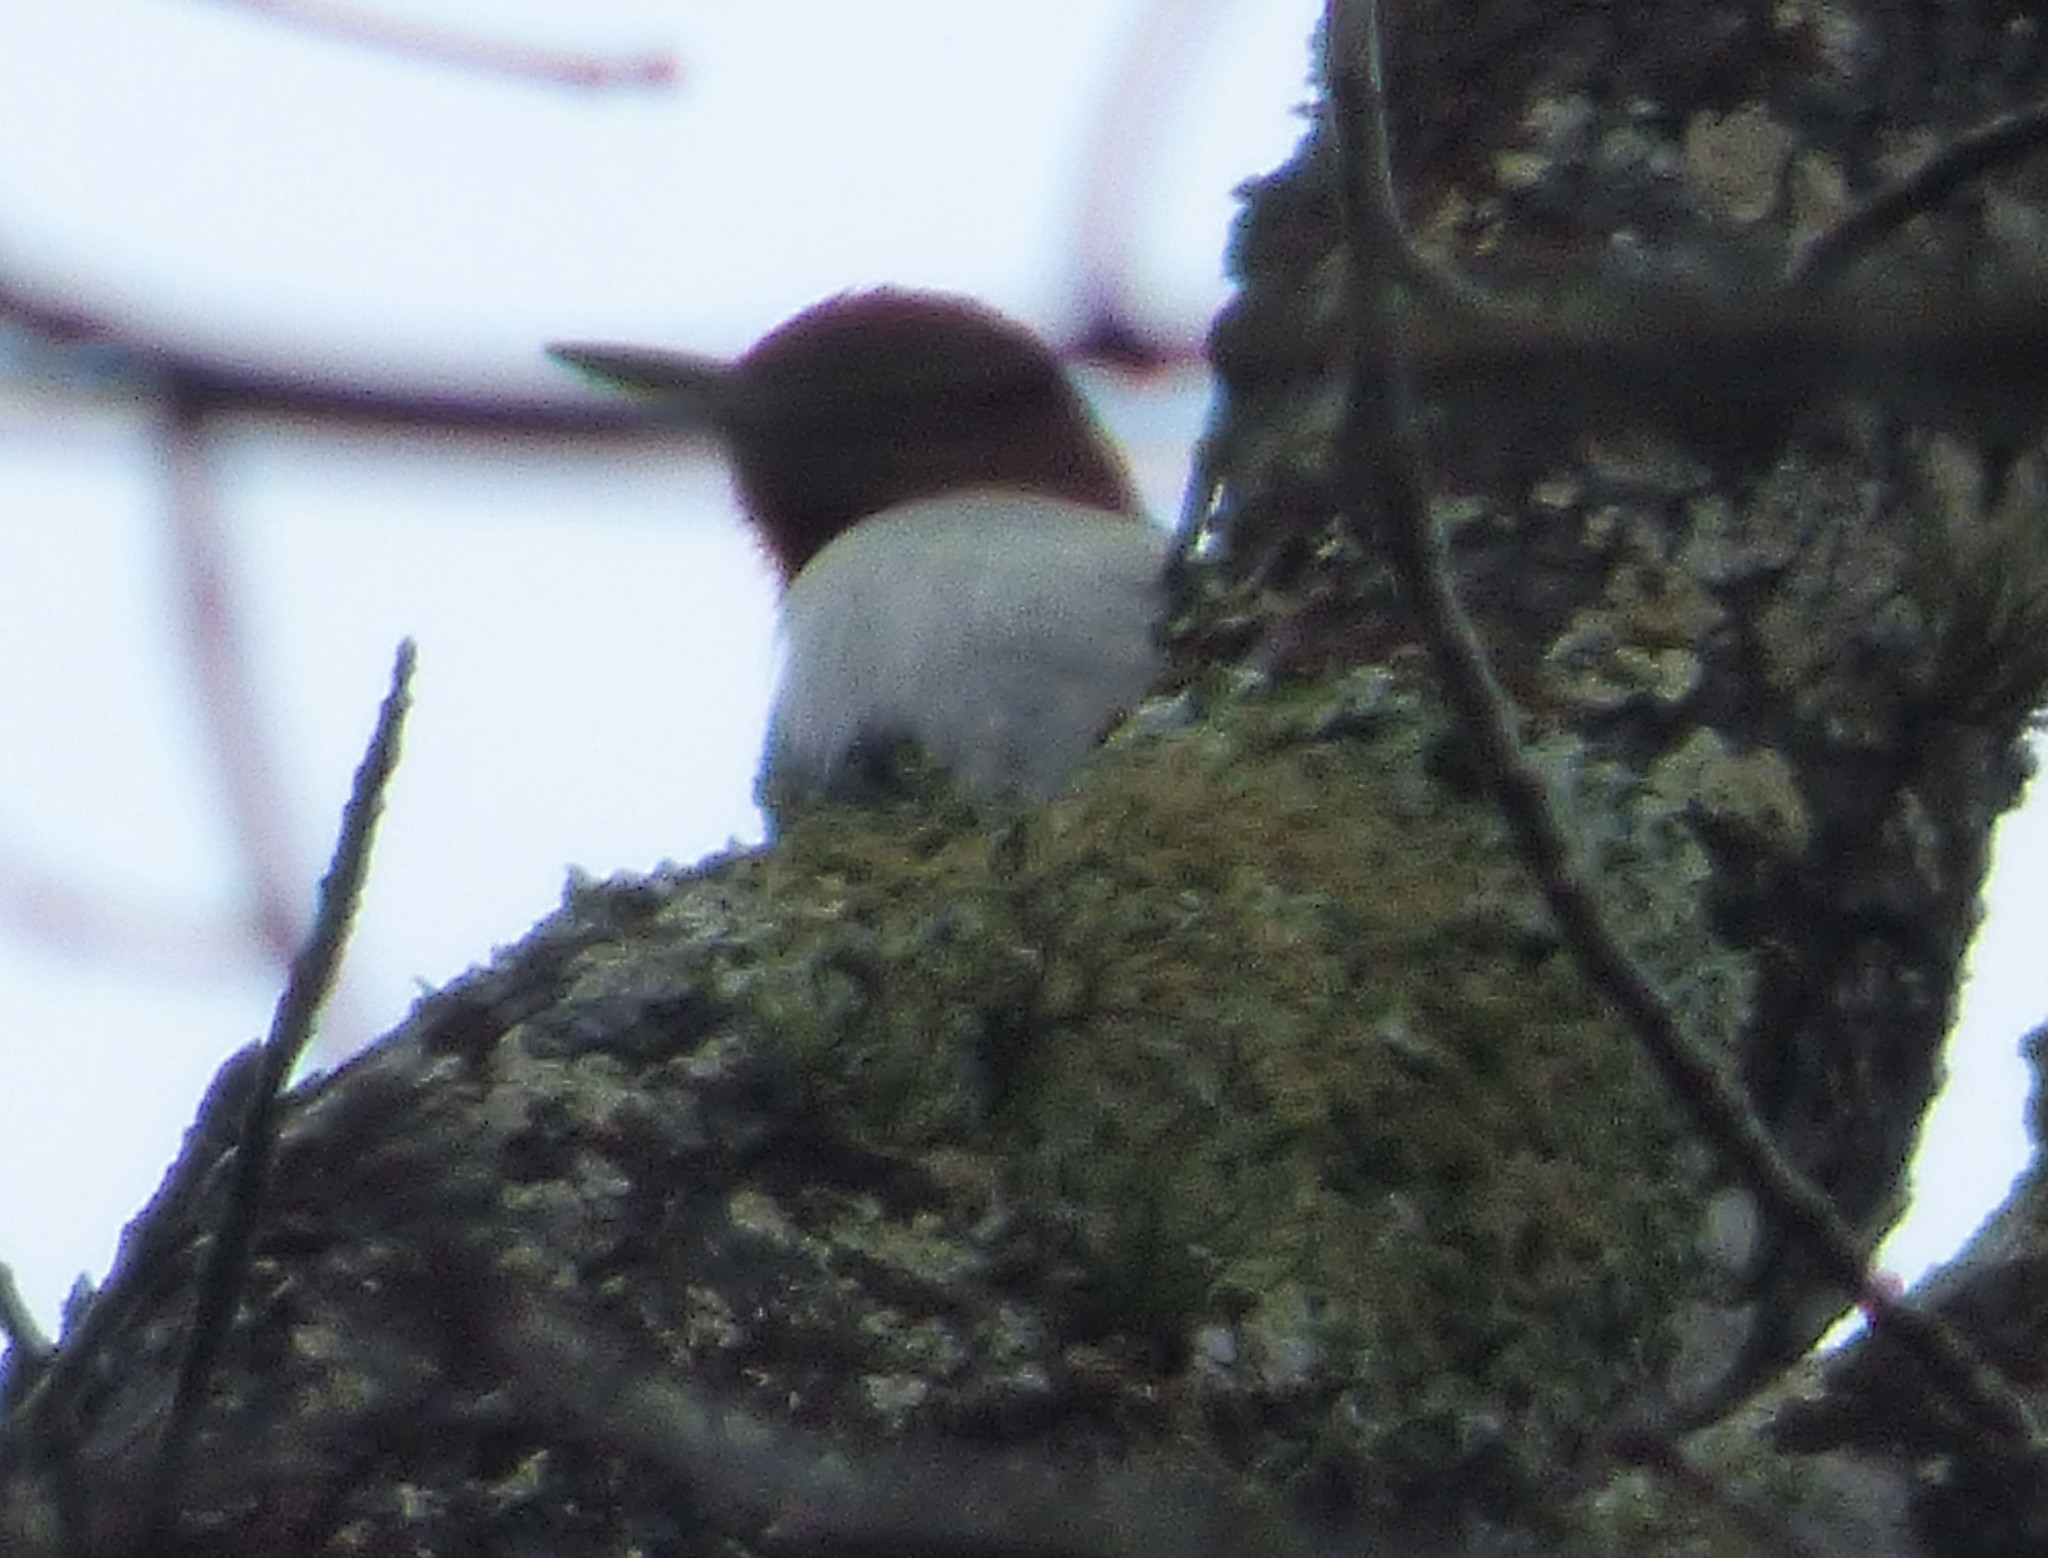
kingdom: Animalia
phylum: Chordata
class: Aves
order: Piciformes
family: Picidae
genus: Melanerpes
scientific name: Melanerpes erythrocephalus
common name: Red-headed woodpecker
